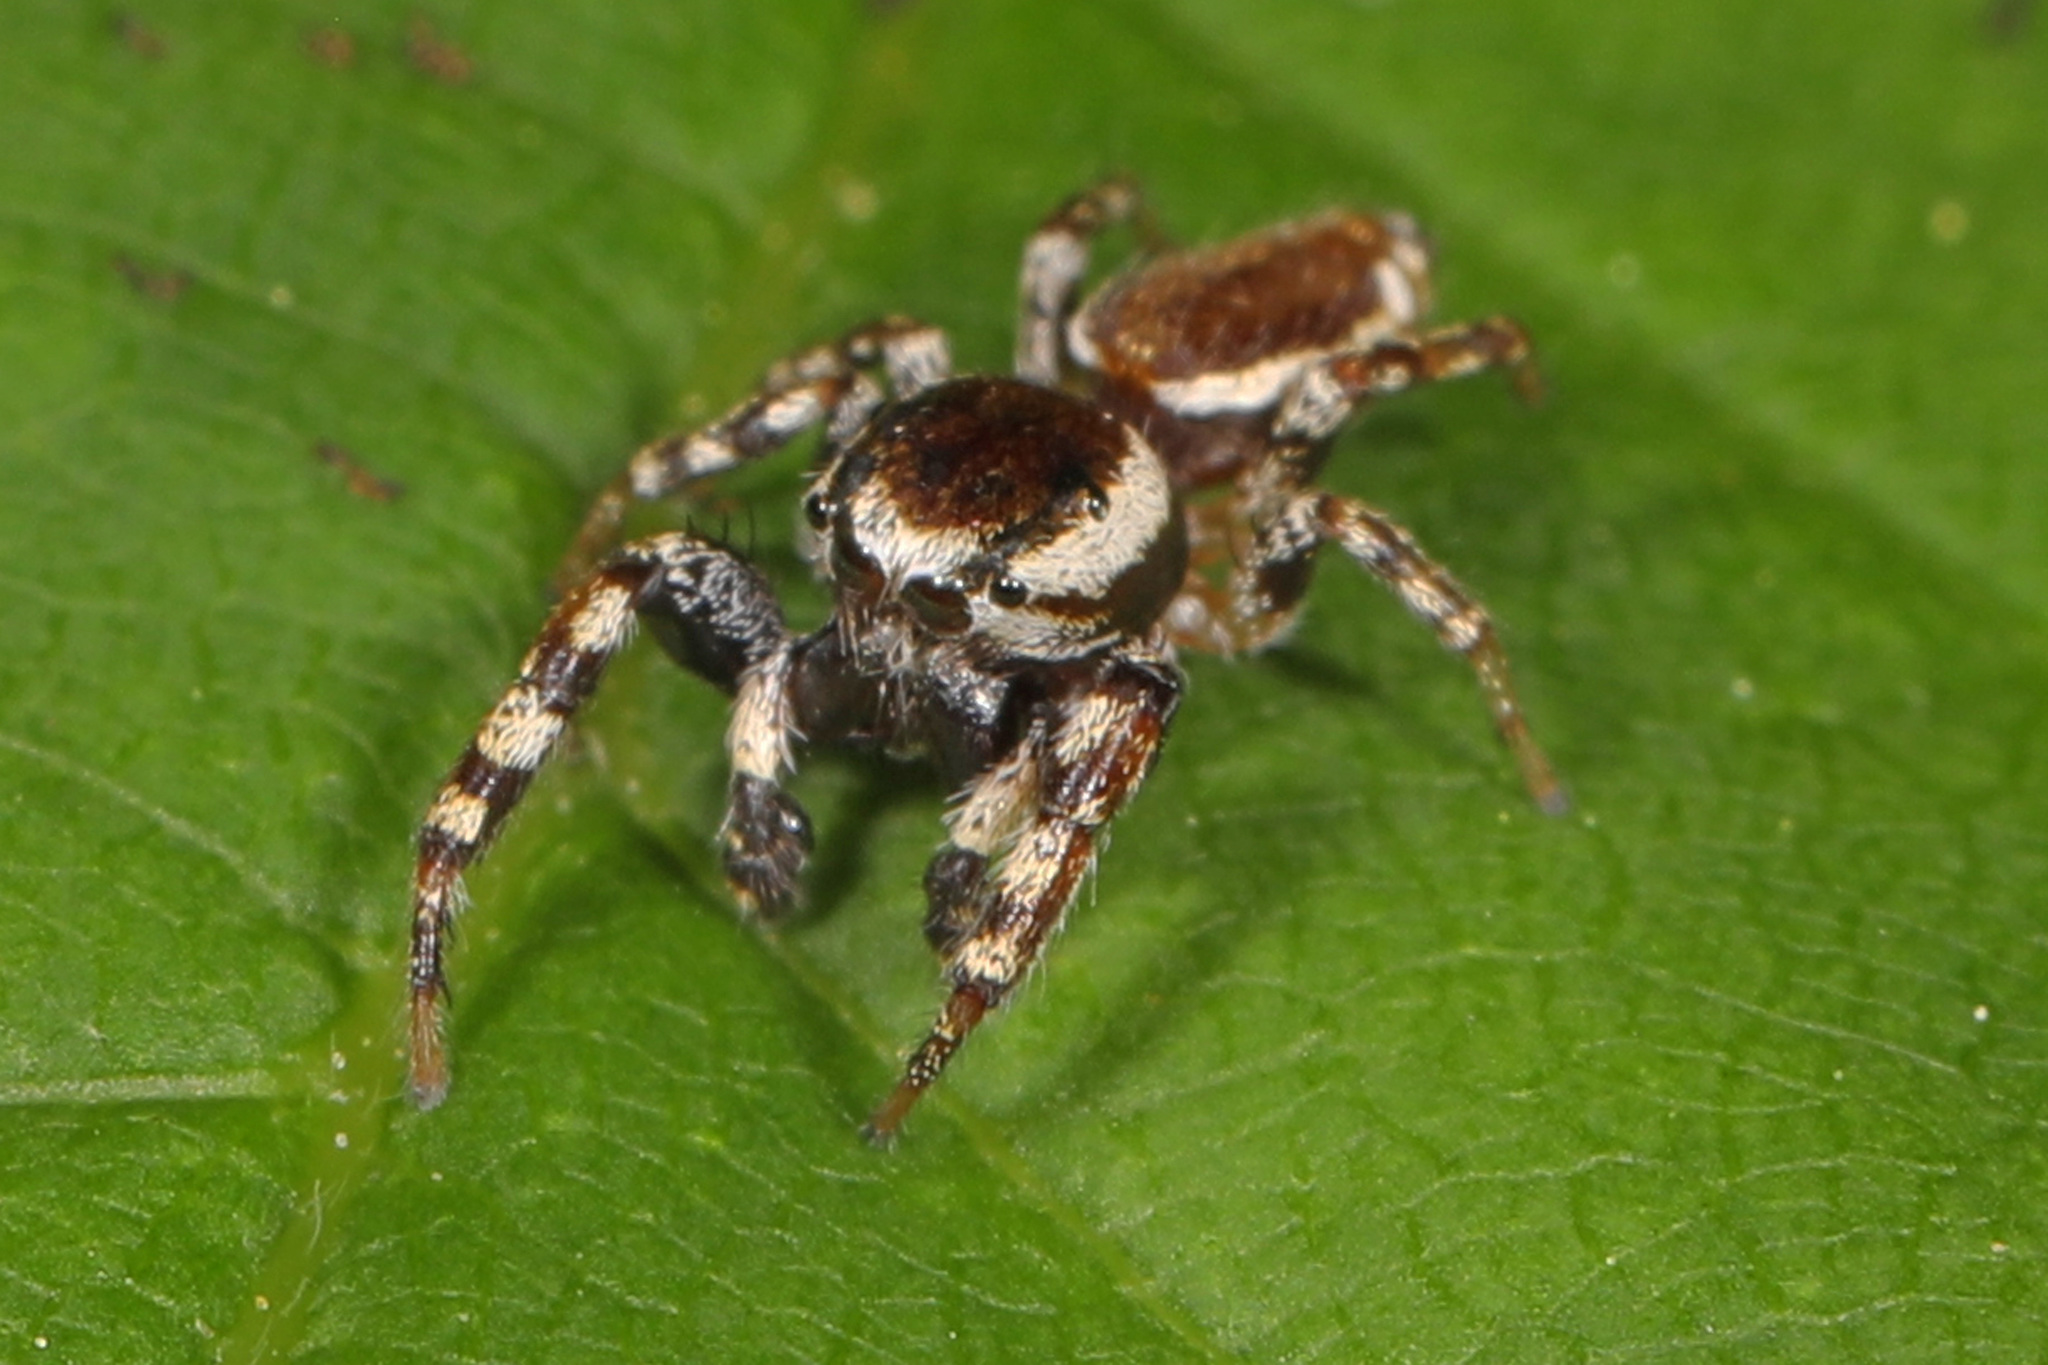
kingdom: Animalia
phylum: Arthropoda
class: Arachnida
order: Araneae
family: Salticidae
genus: Pelegrina
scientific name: Pelegrina proterva
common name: Common white-cheeked jumping spider
